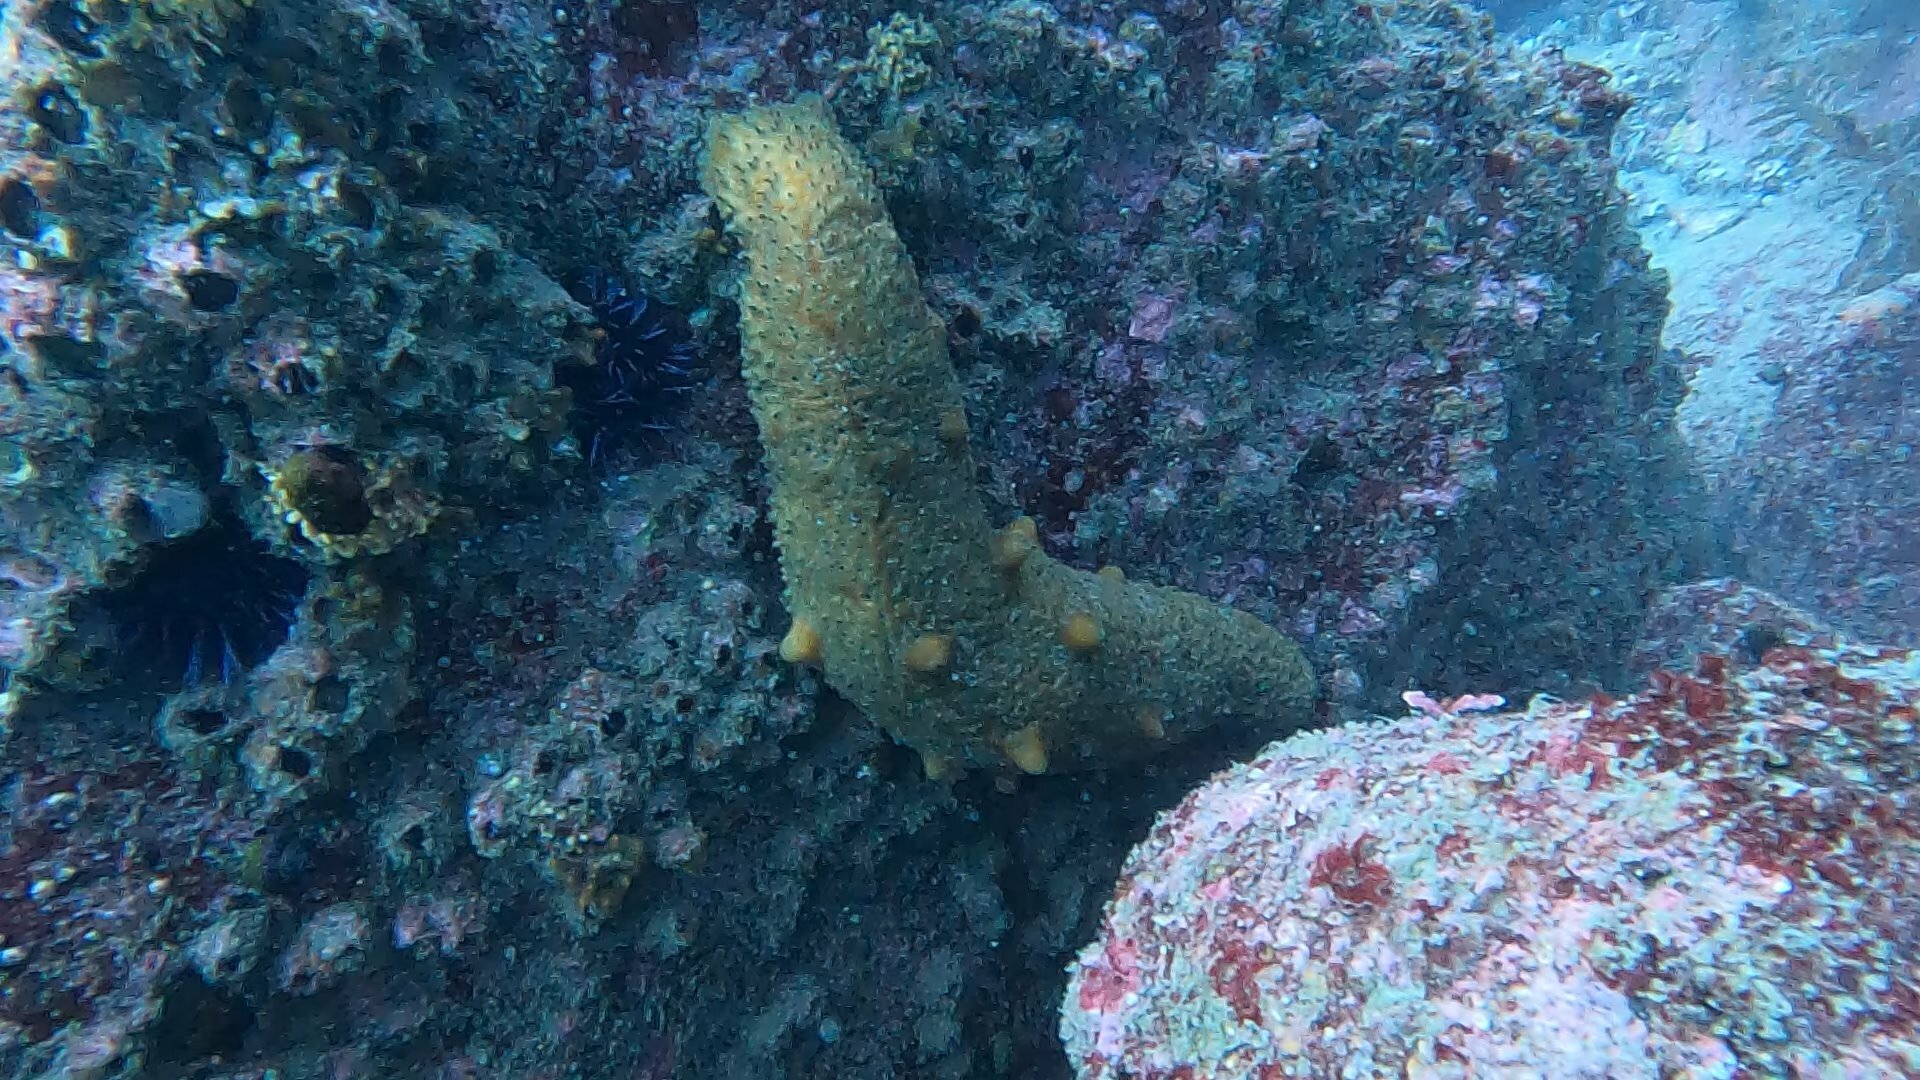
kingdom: Animalia
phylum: Echinodermata
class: Holothuroidea
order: Synallactida
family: Stichopodidae
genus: Apostichopus
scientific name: Apostichopus parvimensis
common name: Warty sea cucumber
